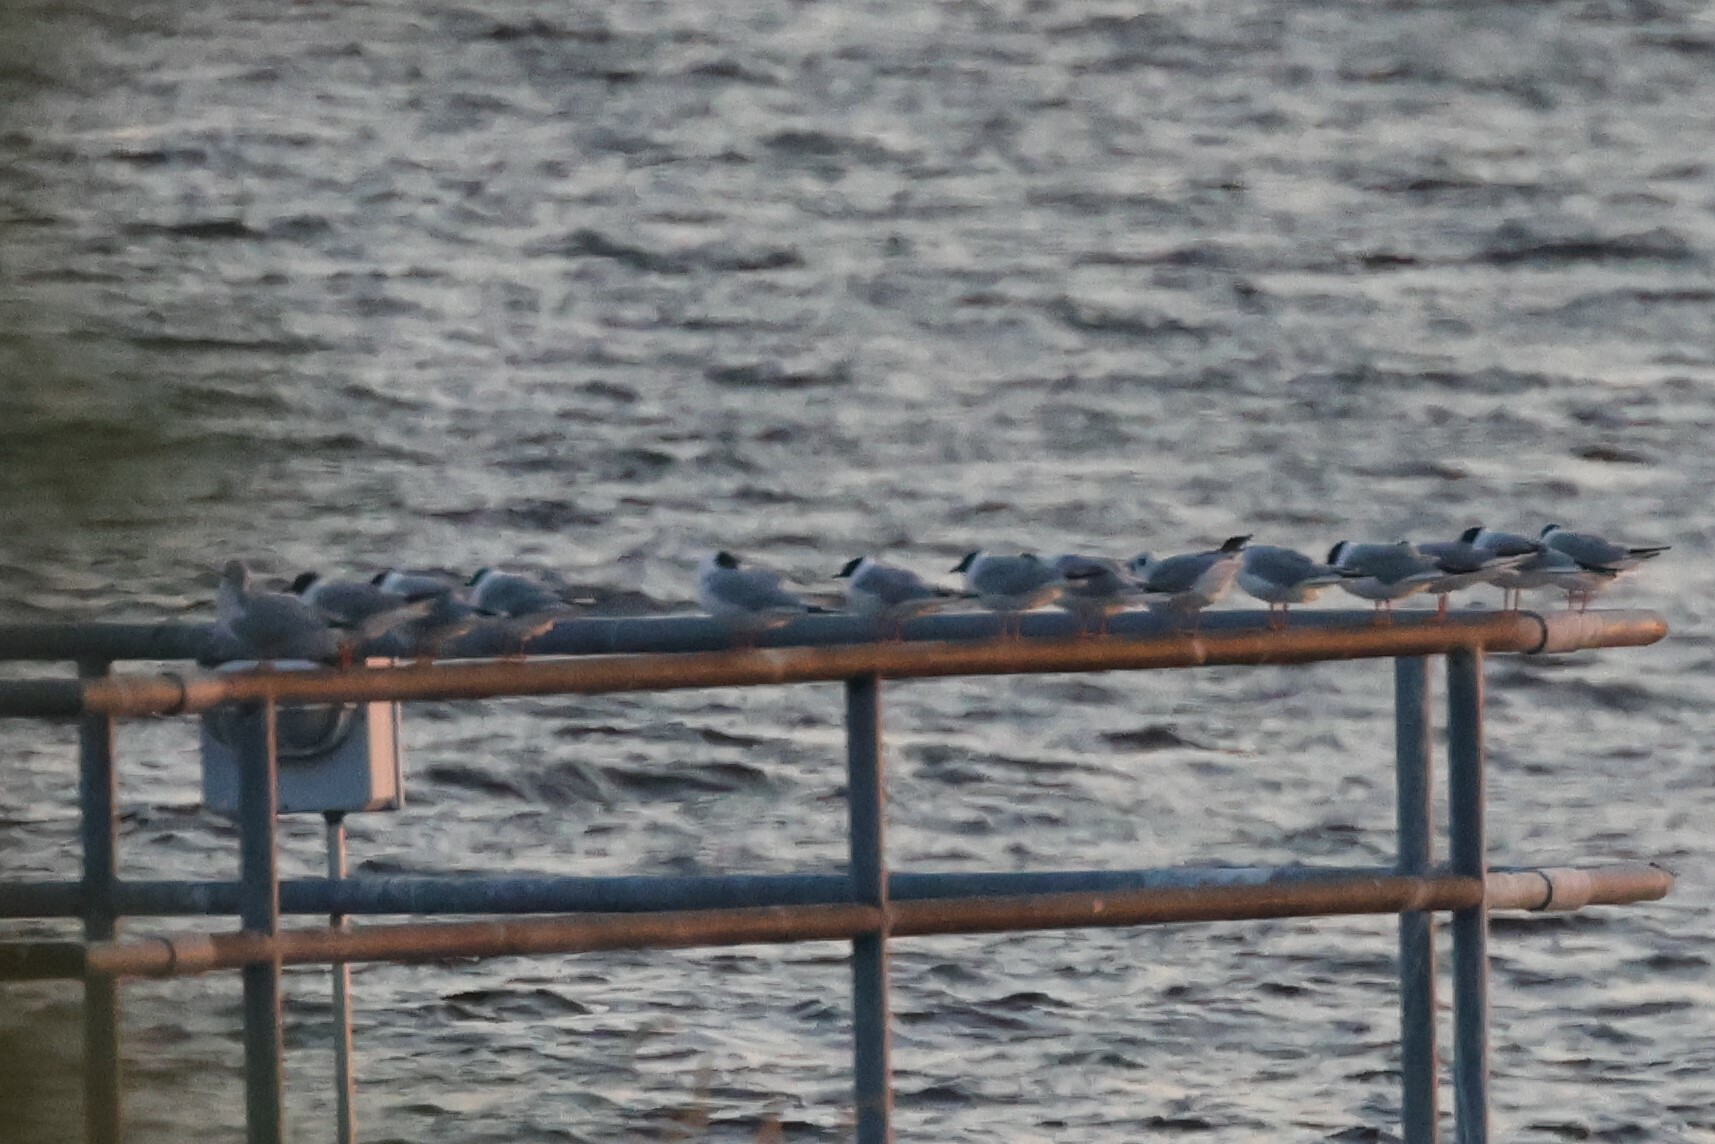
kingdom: Animalia
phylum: Chordata
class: Aves
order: Charadriiformes
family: Laridae
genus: Chroicocephalus
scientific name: Chroicocephalus philadelphia
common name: Bonaparte's gull
